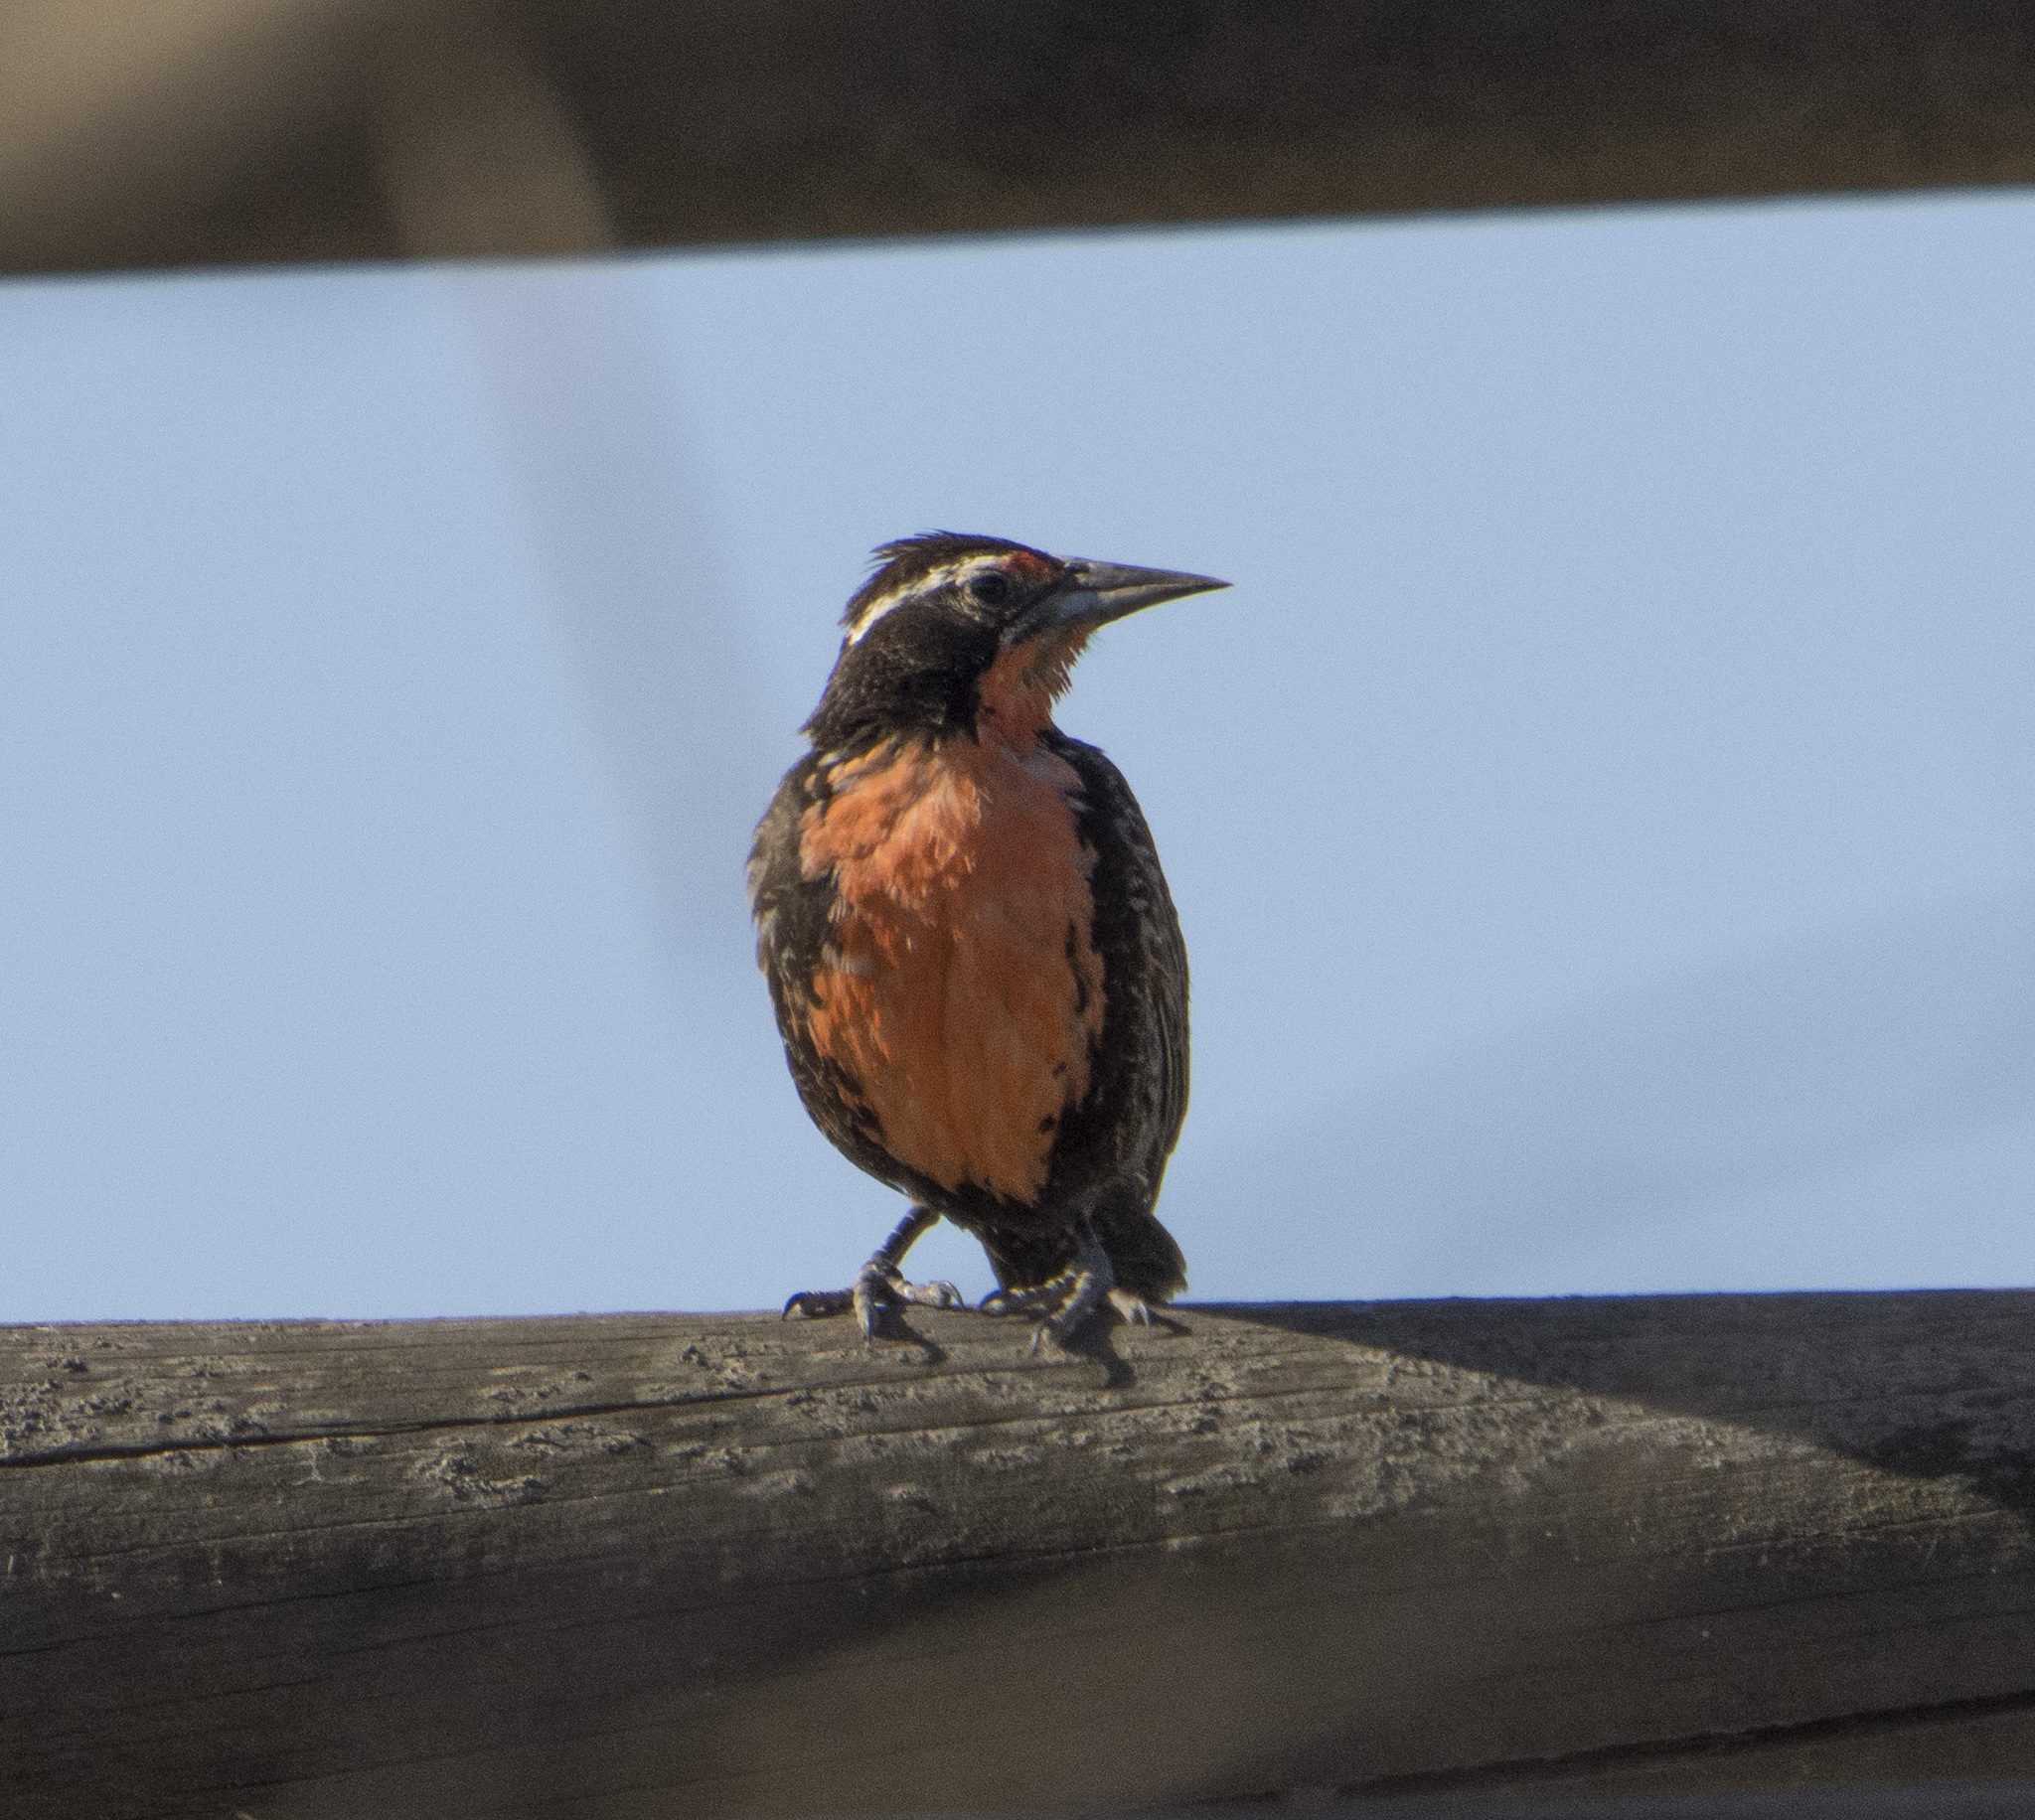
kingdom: Animalia
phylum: Chordata
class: Aves
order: Passeriformes
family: Icteridae
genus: Sturnella
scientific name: Sturnella loyca
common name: Long-tailed meadowlark
